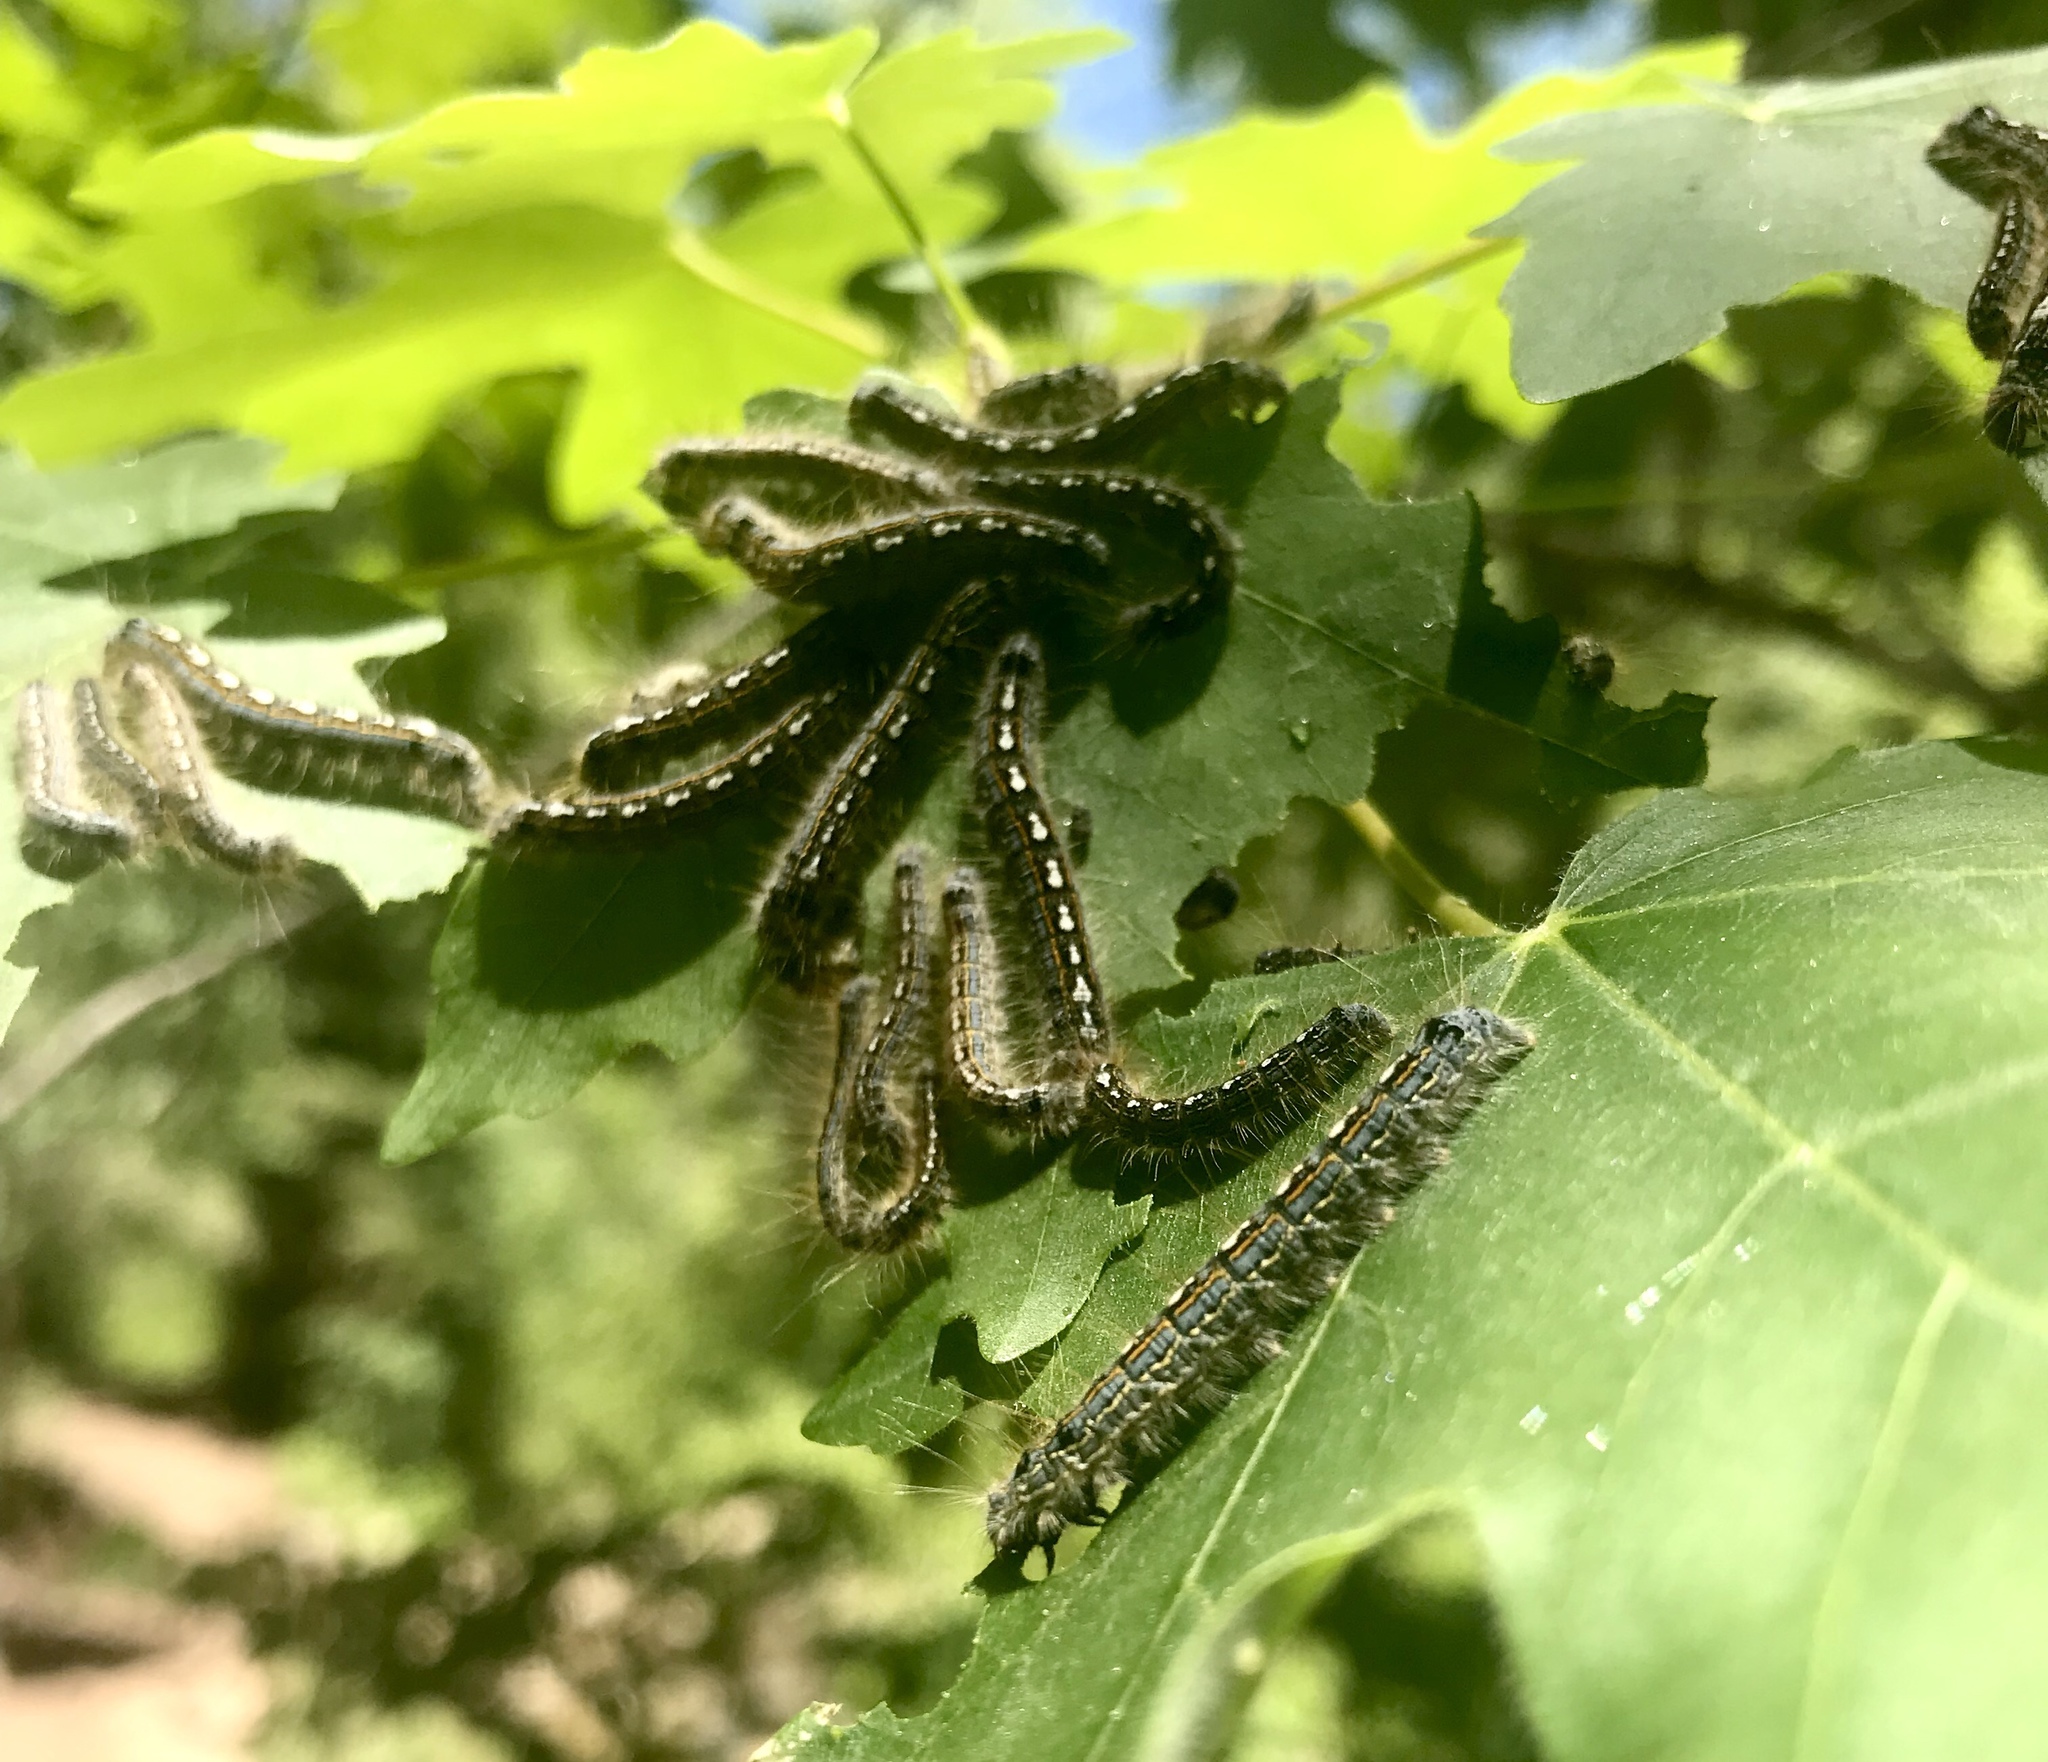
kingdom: Animalia
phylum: Arthropoda
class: Insecta
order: Lepidoptera
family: Lasiocampidae
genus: Malacosoma
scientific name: Malacosoma disstria
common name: Forest tent caterpillar
